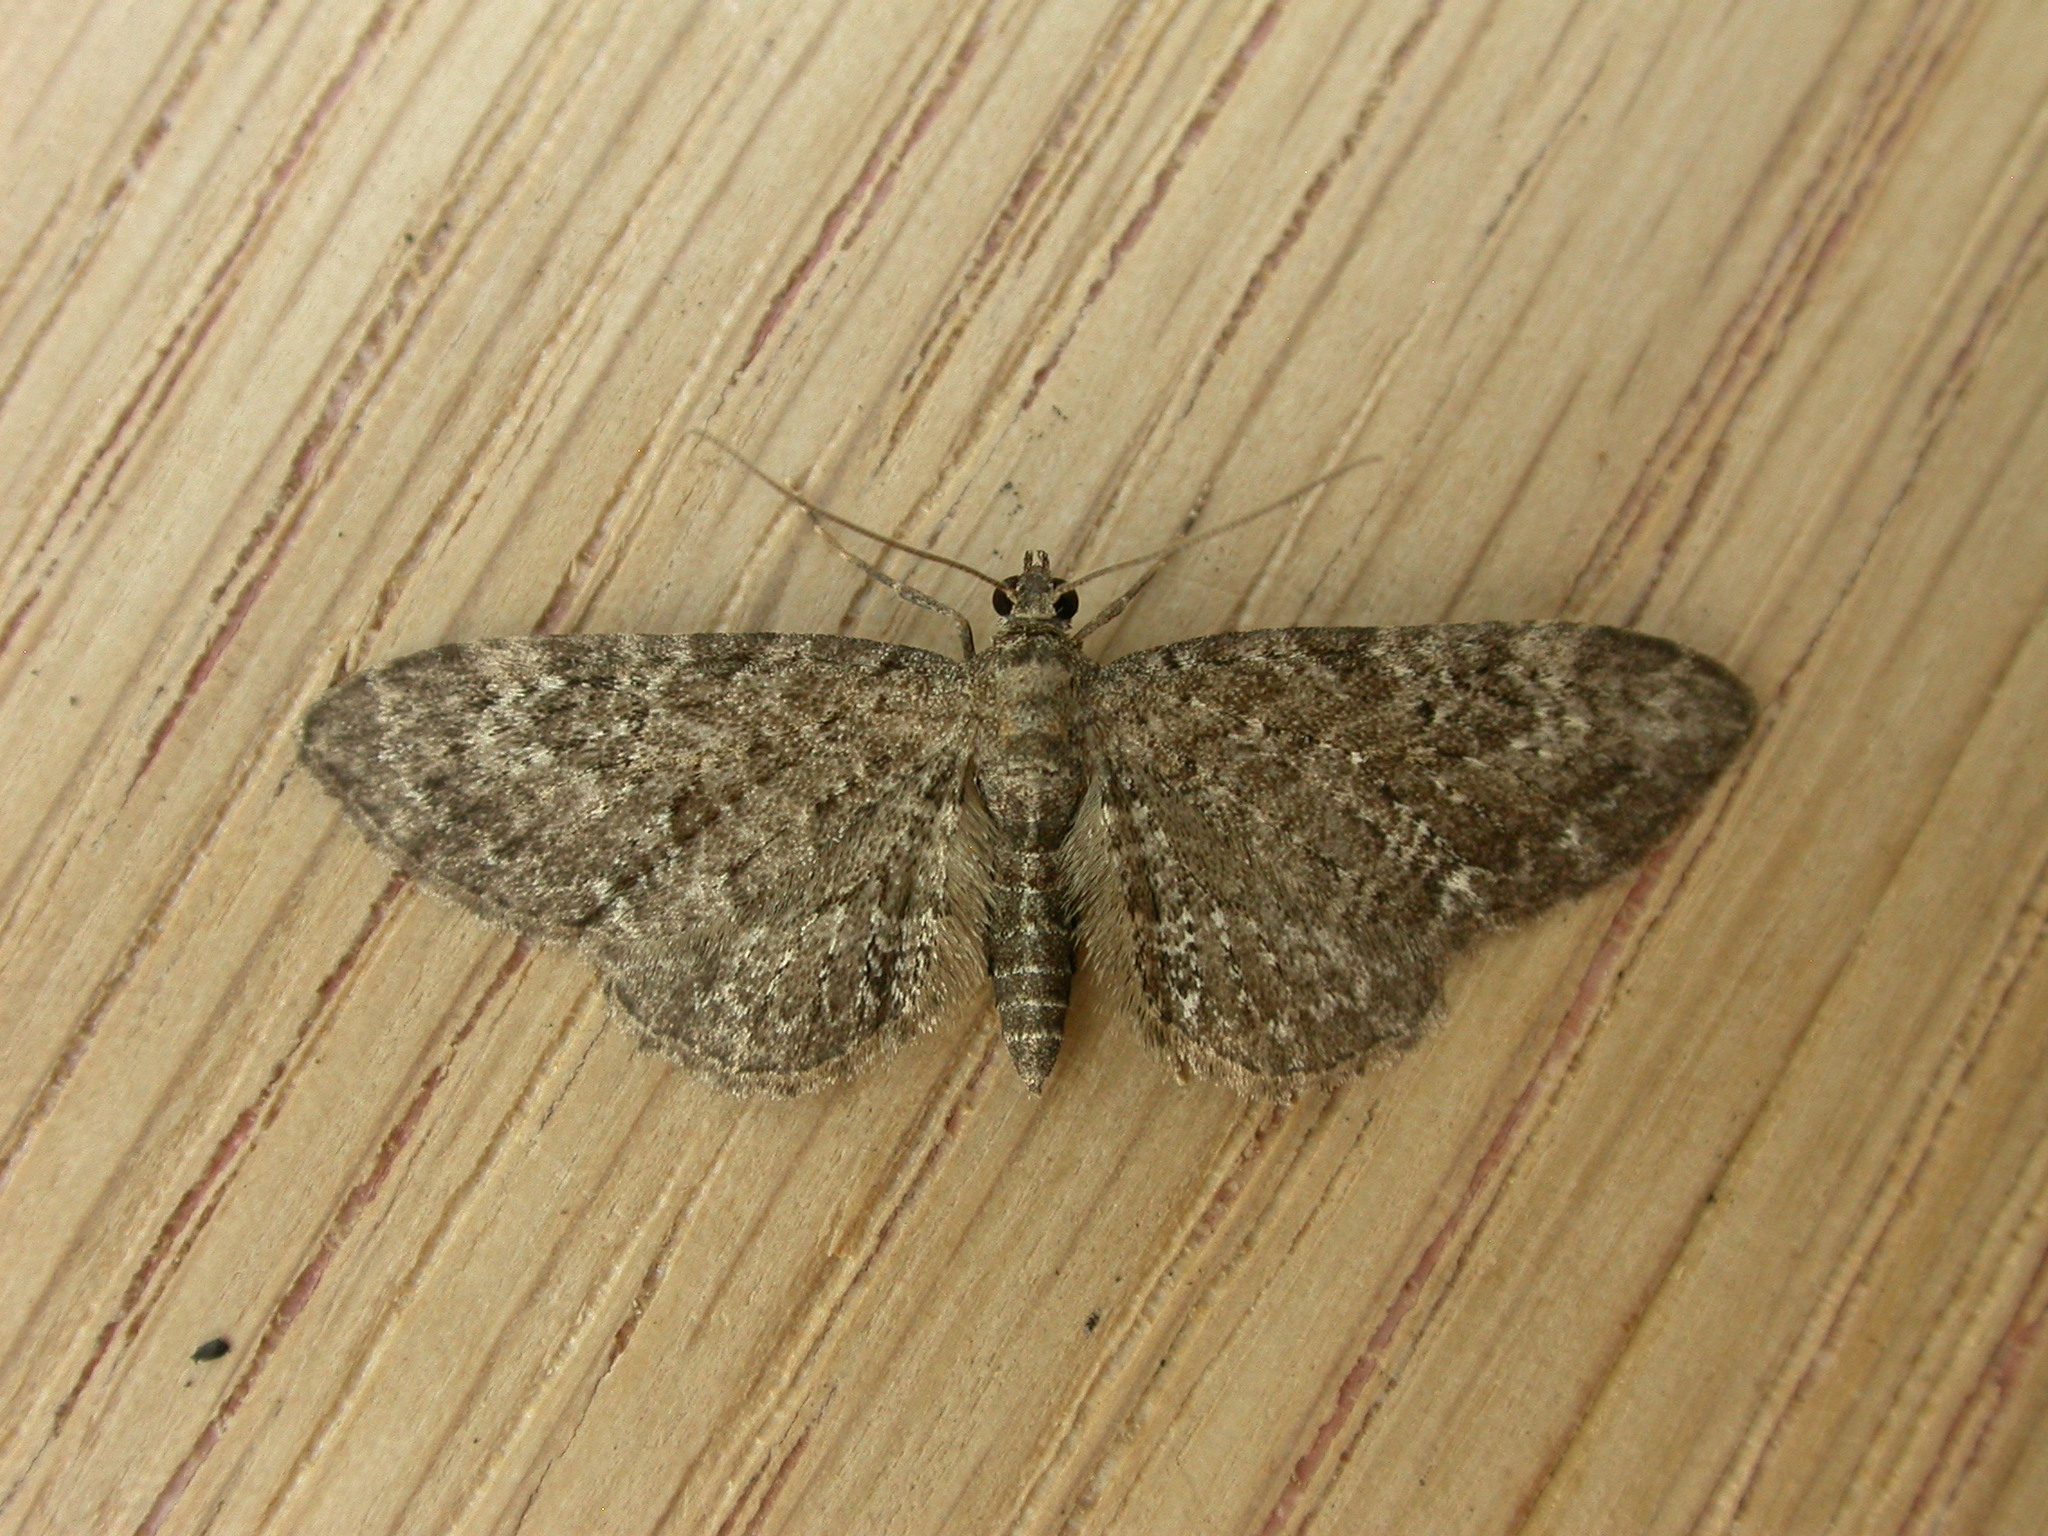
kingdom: Animalia
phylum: Arthropoda
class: Insecta
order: Lepidoptera
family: Geometridae
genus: Eupithecia
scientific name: Eupithecia vulgata
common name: Common pug
